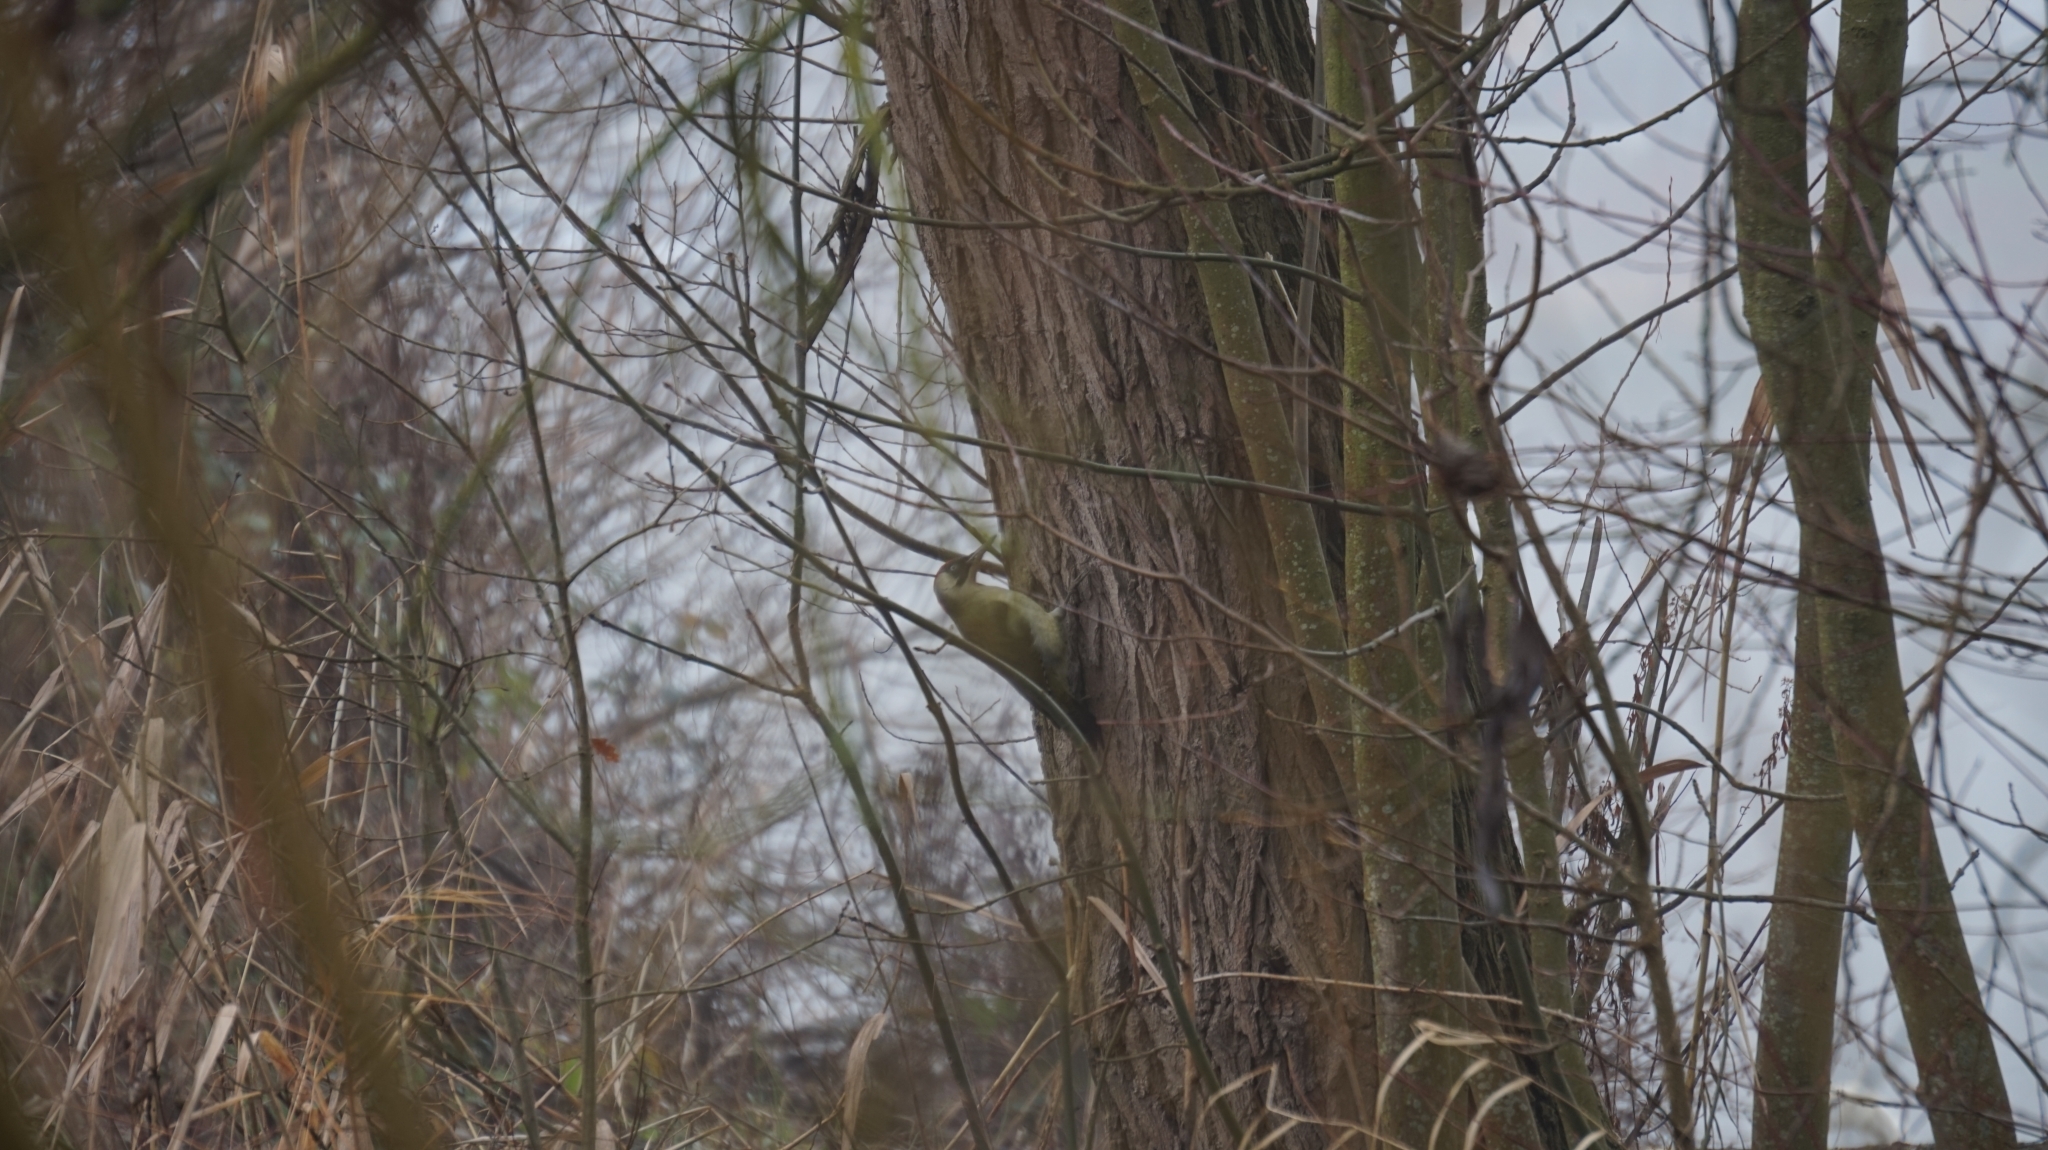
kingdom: Animalia
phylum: Chordata
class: Aves
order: Piciformes
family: Picidae
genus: Picus
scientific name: Picus viridis
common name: European green woodpecker
